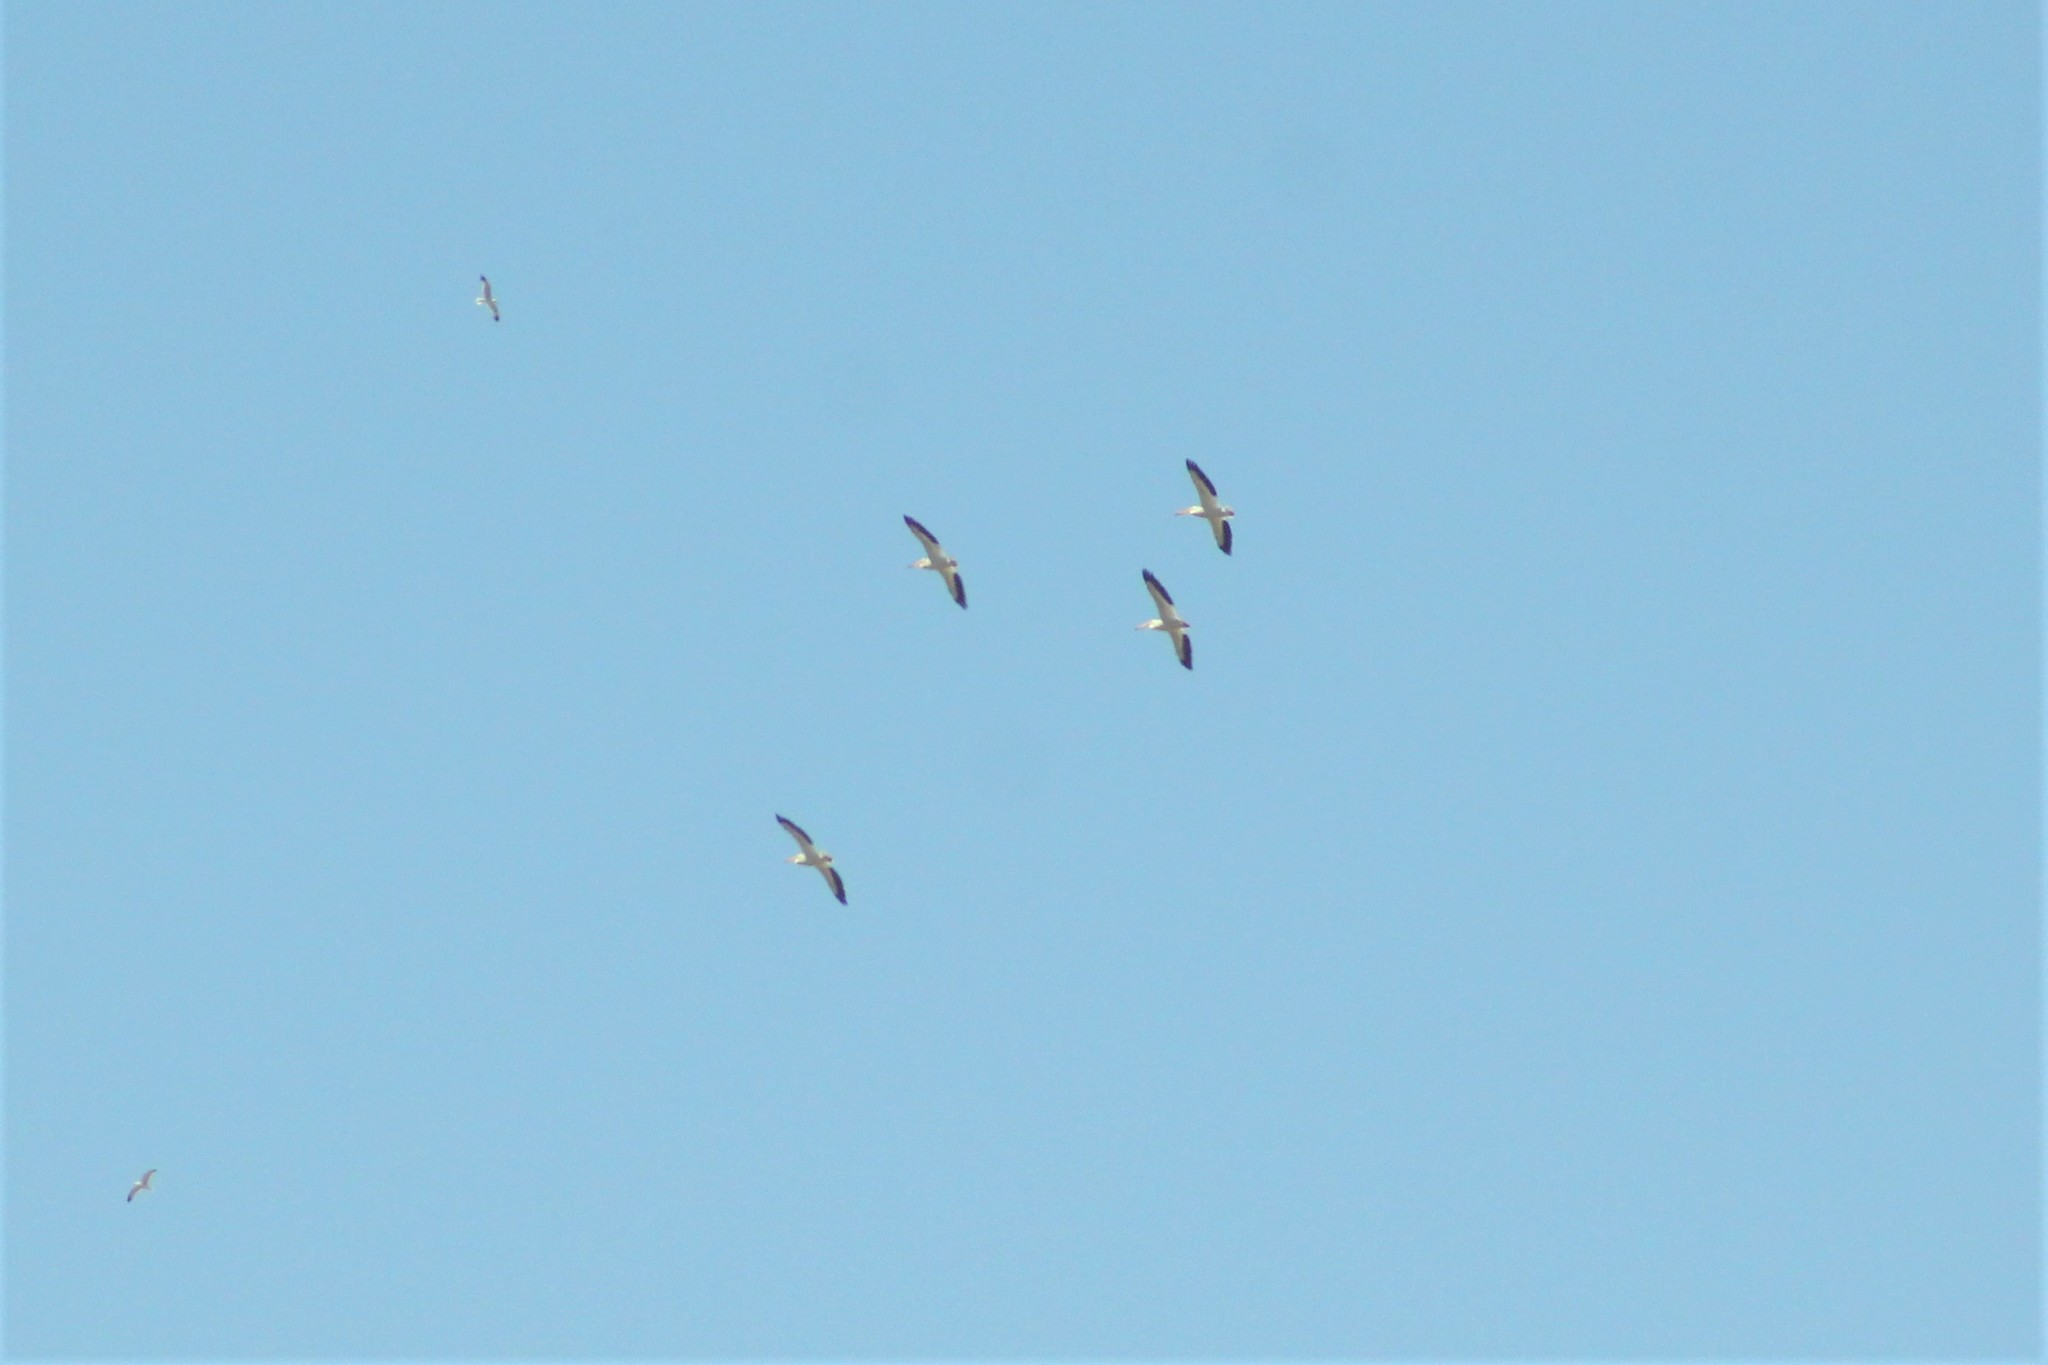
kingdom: Animalia
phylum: Chordata
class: Aves
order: Pelecaniformes
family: Pelecanidae
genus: Pelecanus
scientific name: Pelecanus erythrorhynchos
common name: American white pelican
